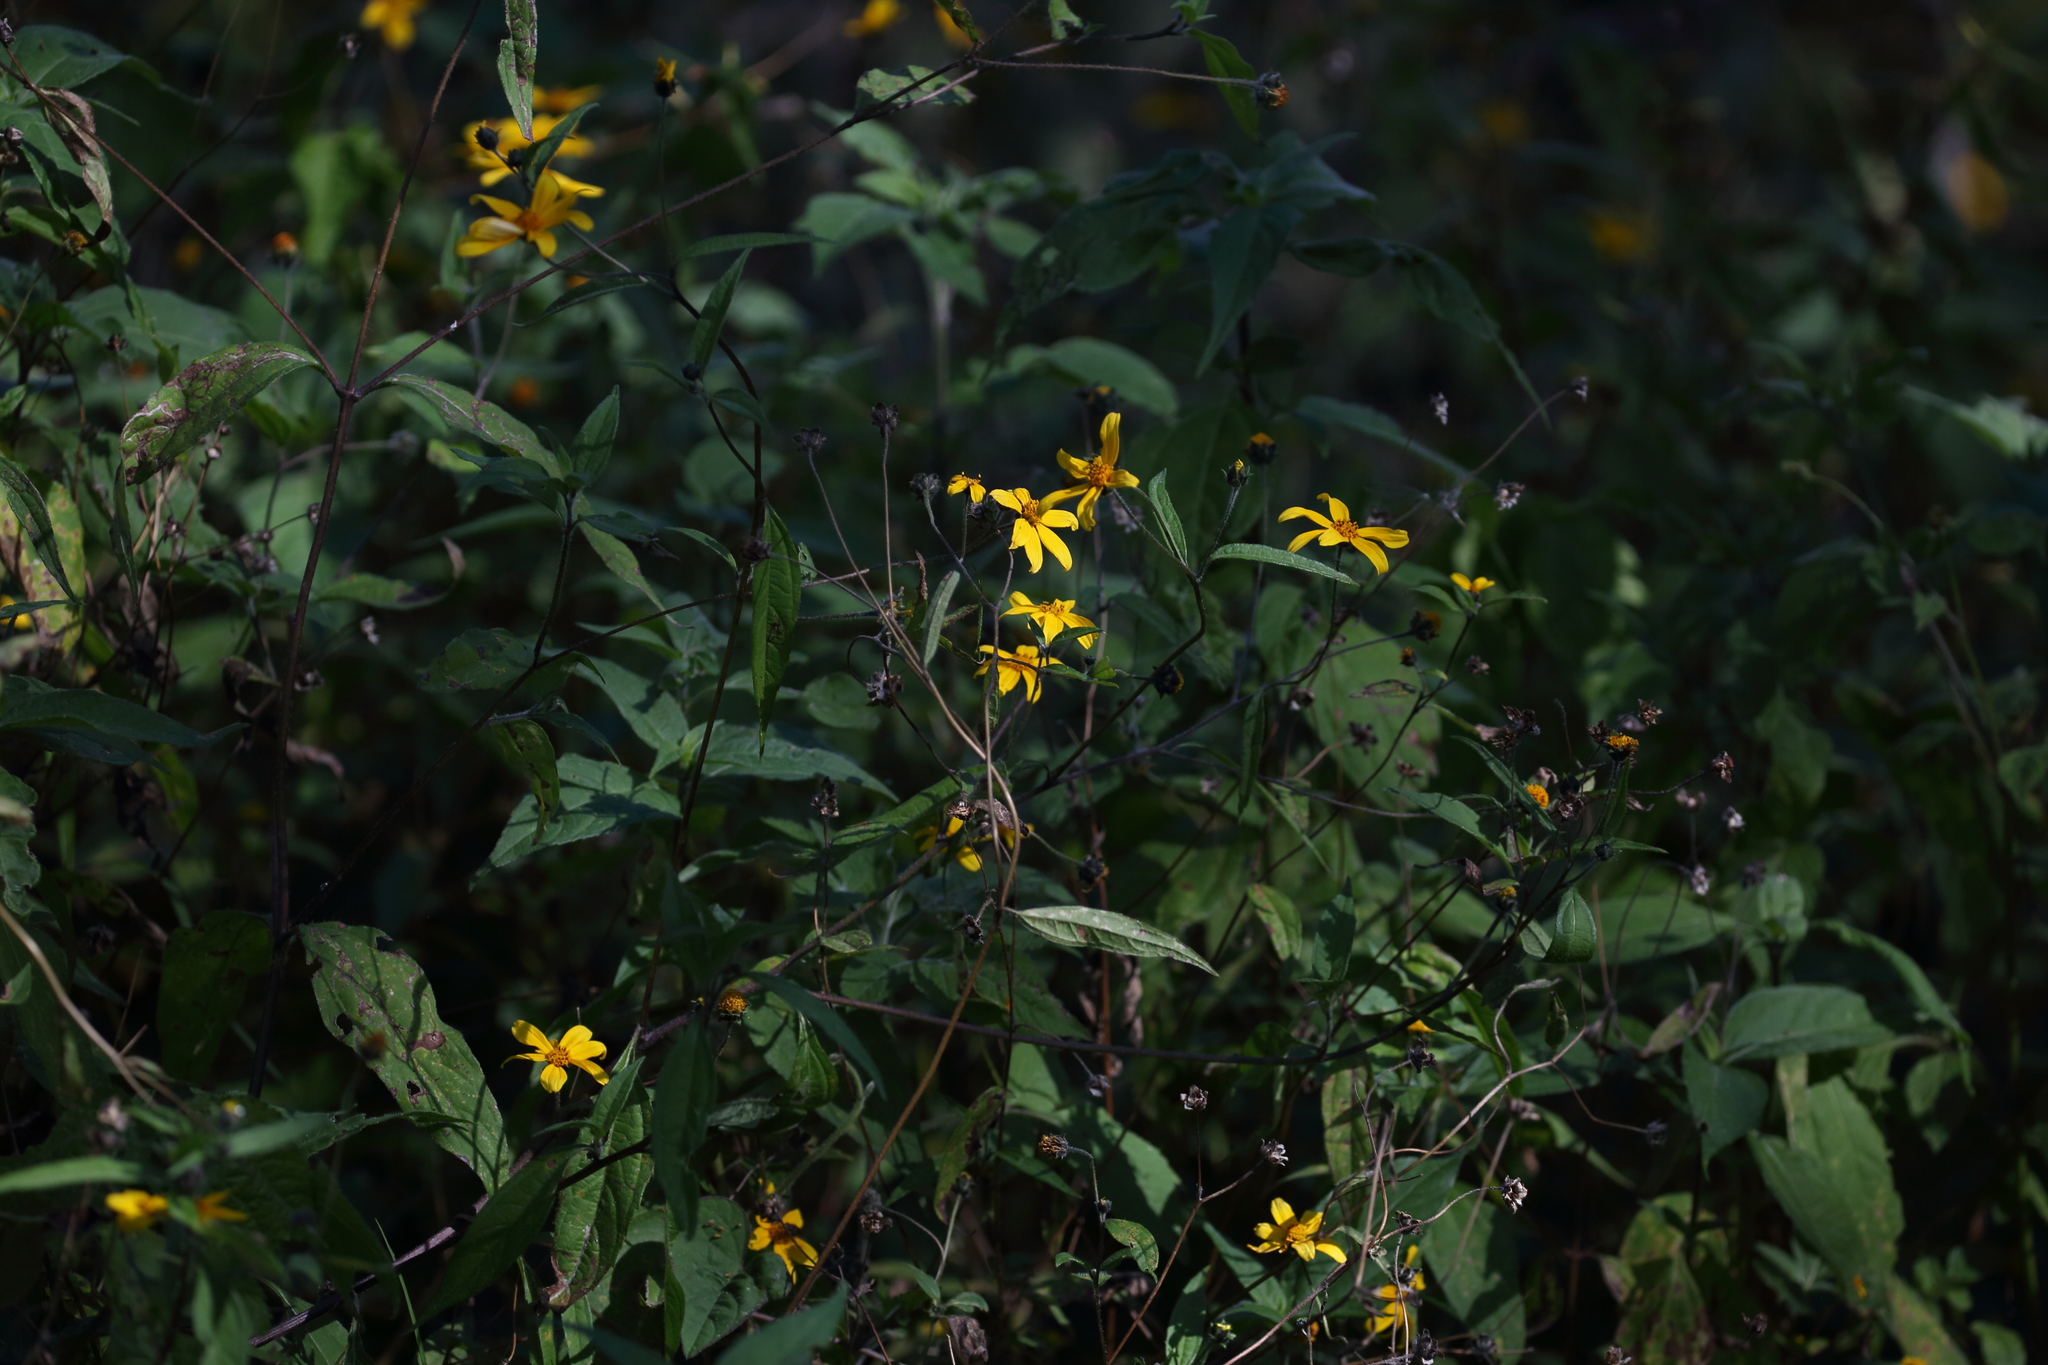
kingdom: Plantae
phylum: Tracheophyta
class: Magnoliopsida
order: Asterales
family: Asteraceae
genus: Aldama
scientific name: Aldama dentata
